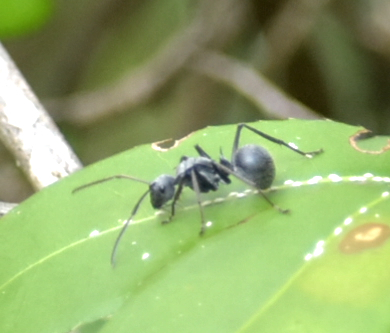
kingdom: Animalia
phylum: Arthropoda
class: Insecta
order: Hymenoptera
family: Formicidae
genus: Polyrhachis
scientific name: Polyrhachis schistacea
